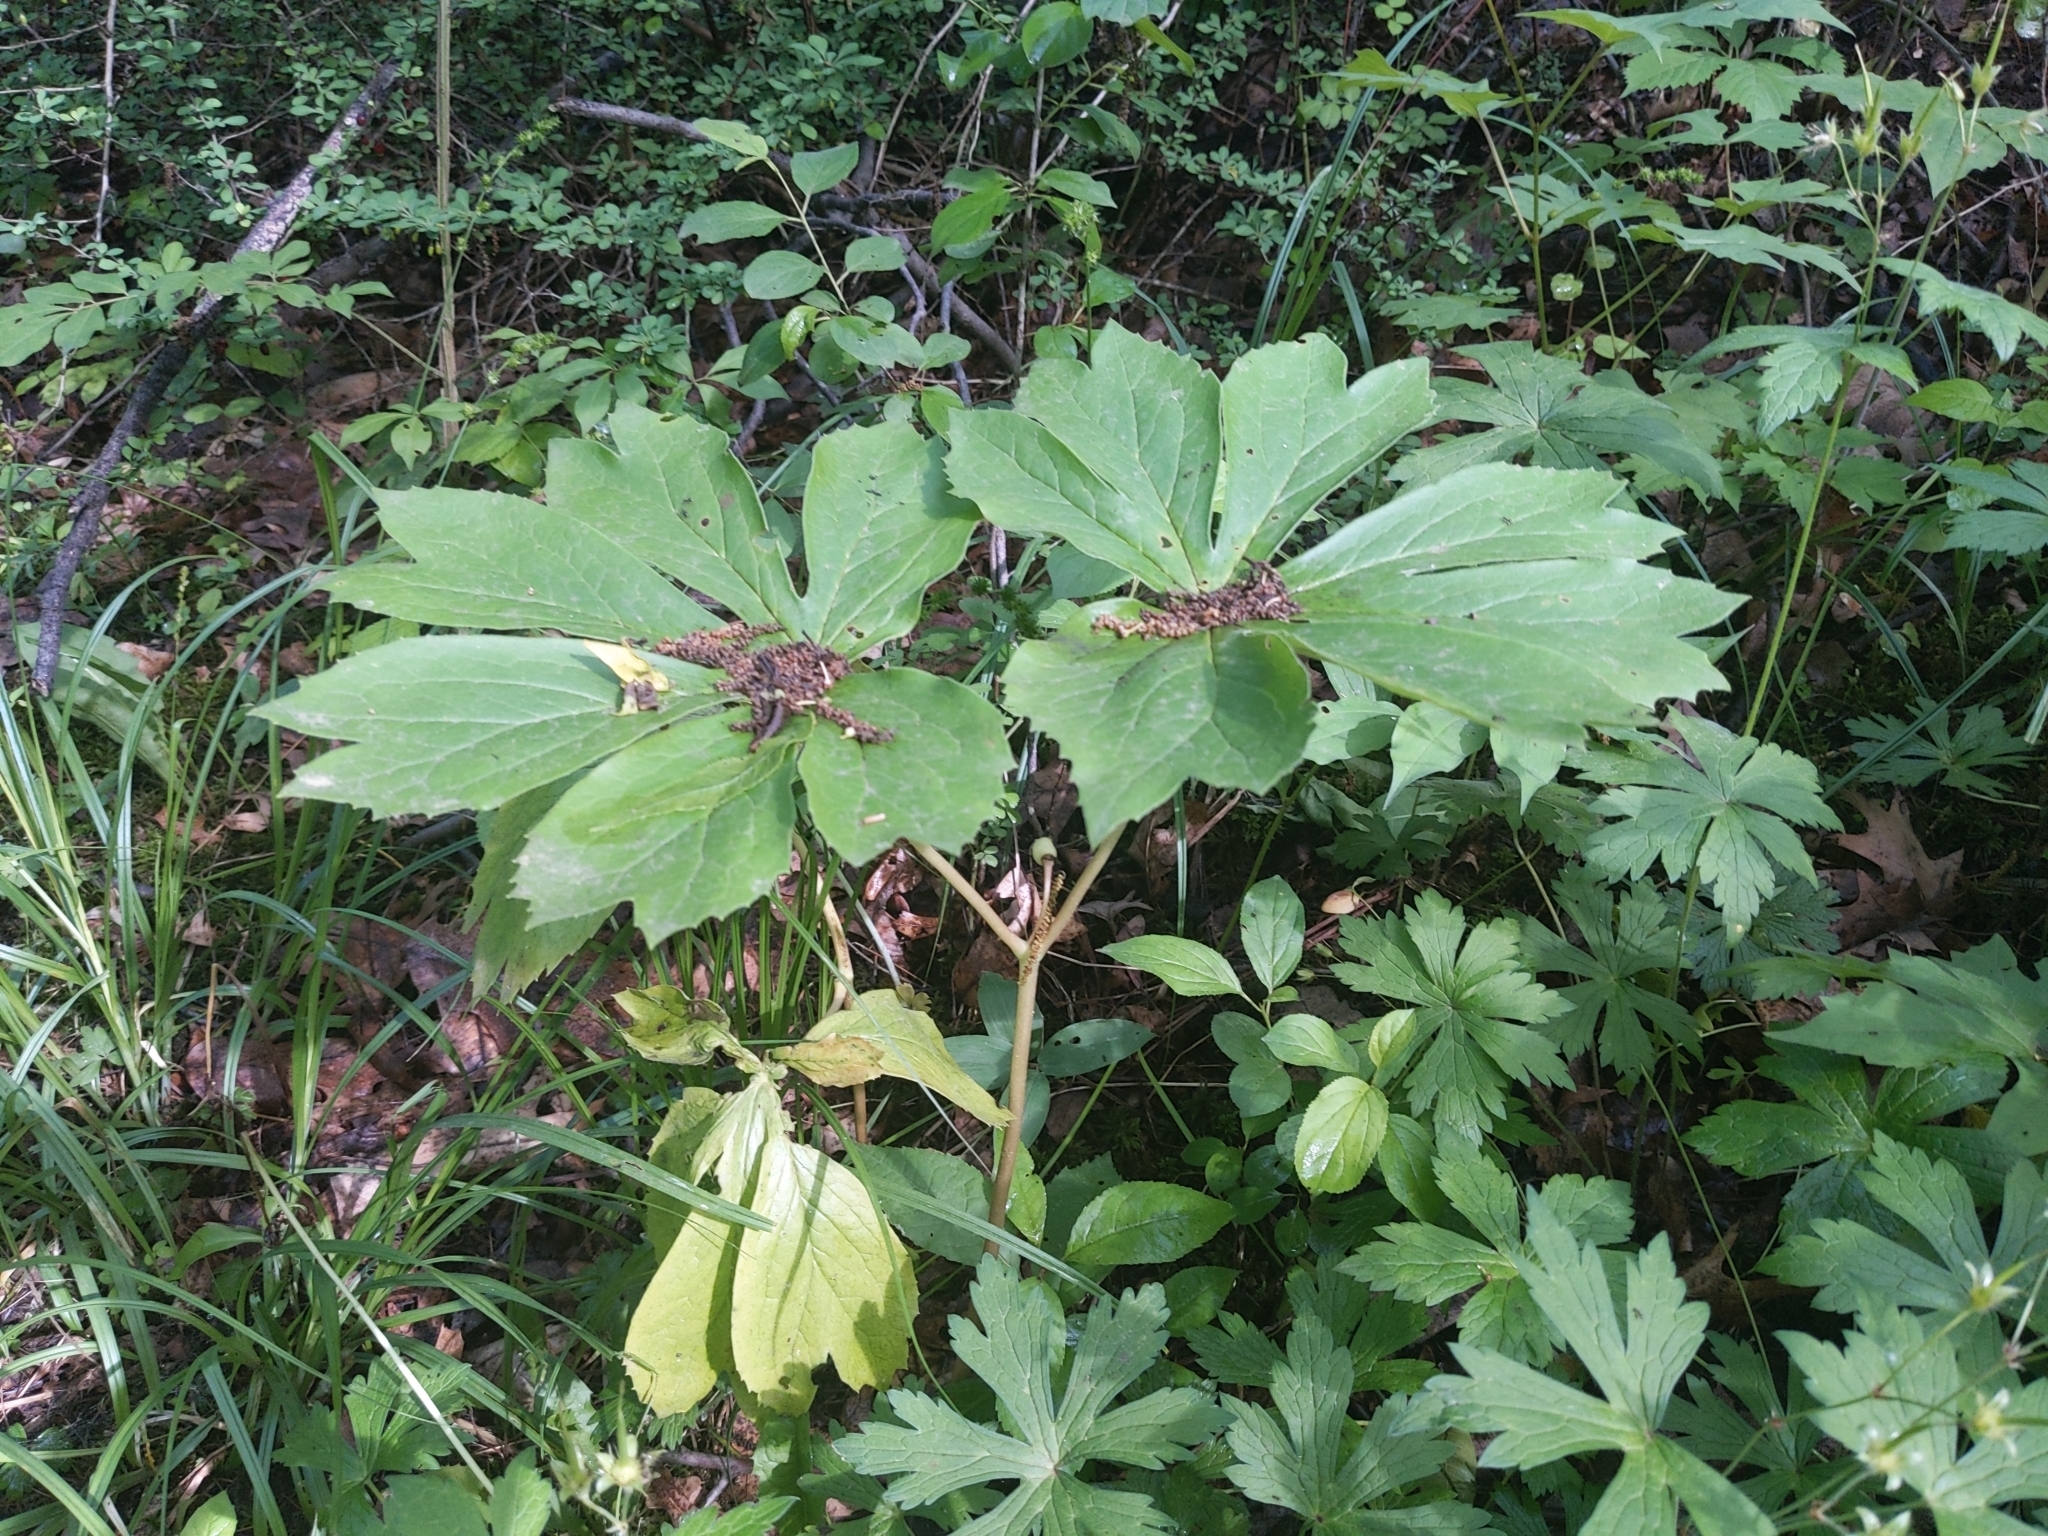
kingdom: Plantae
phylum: Tracheophyta
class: Magnoliopsida
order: Ranunculales
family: Berberidaceae
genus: Podophyllum
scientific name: Podophyllum peltatum
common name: Wild mandrake
